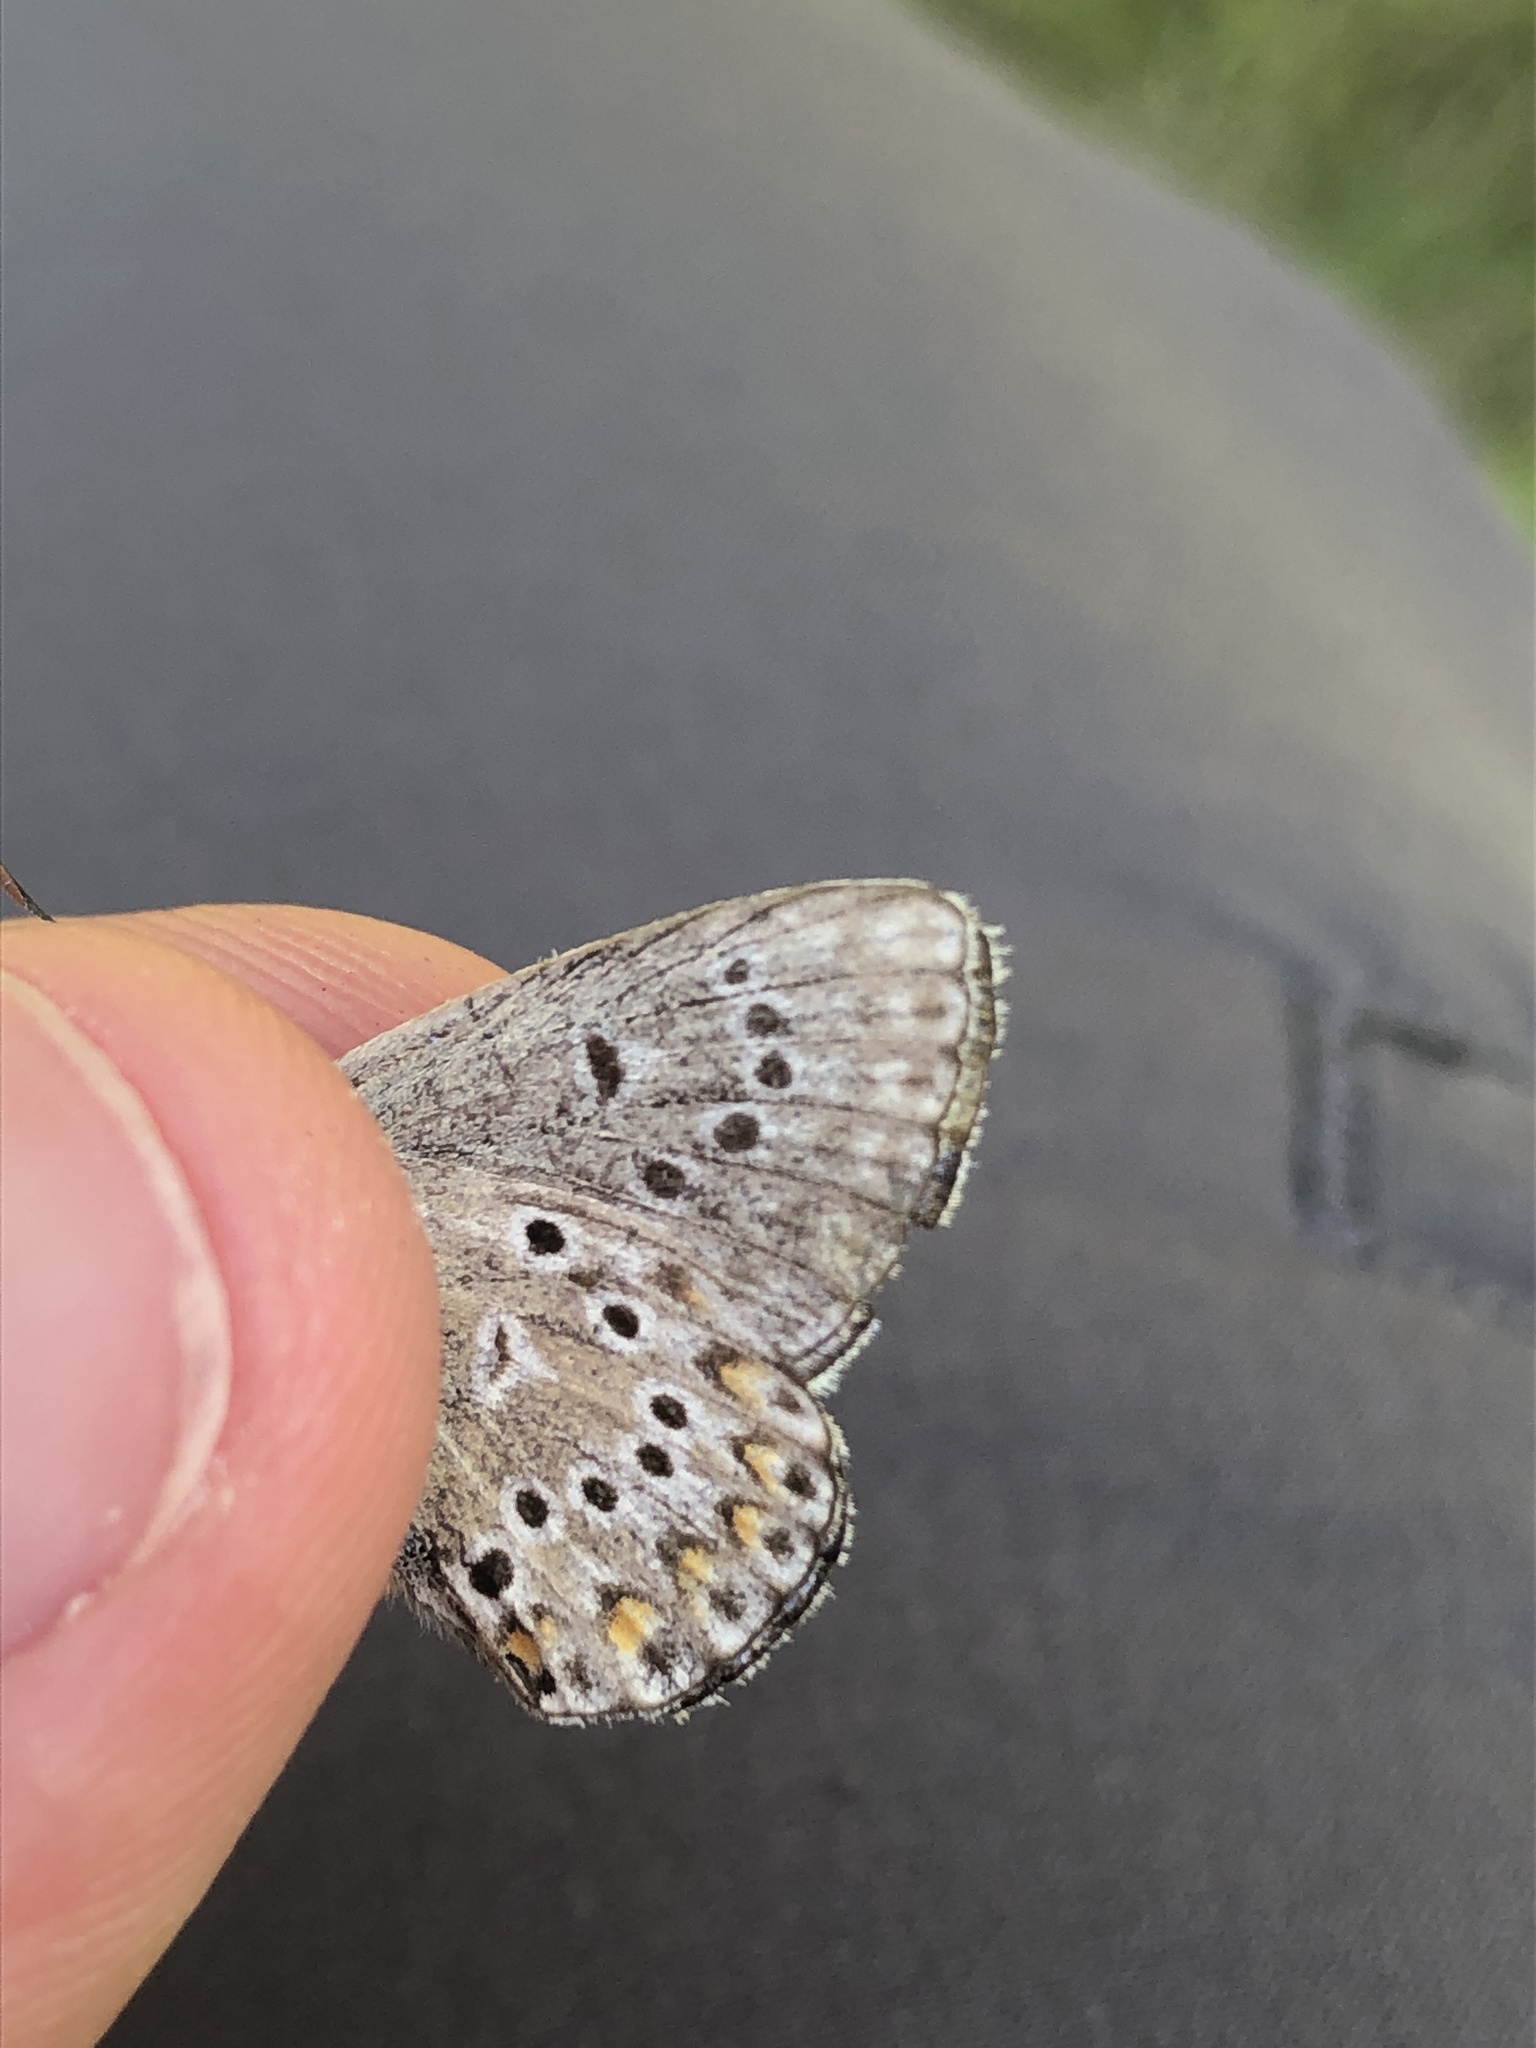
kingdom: Animalia
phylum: Arthropoda
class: Insecta
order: Lepidoptera
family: Lycaenidae
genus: Plebejus
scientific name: Plebejus amanda
